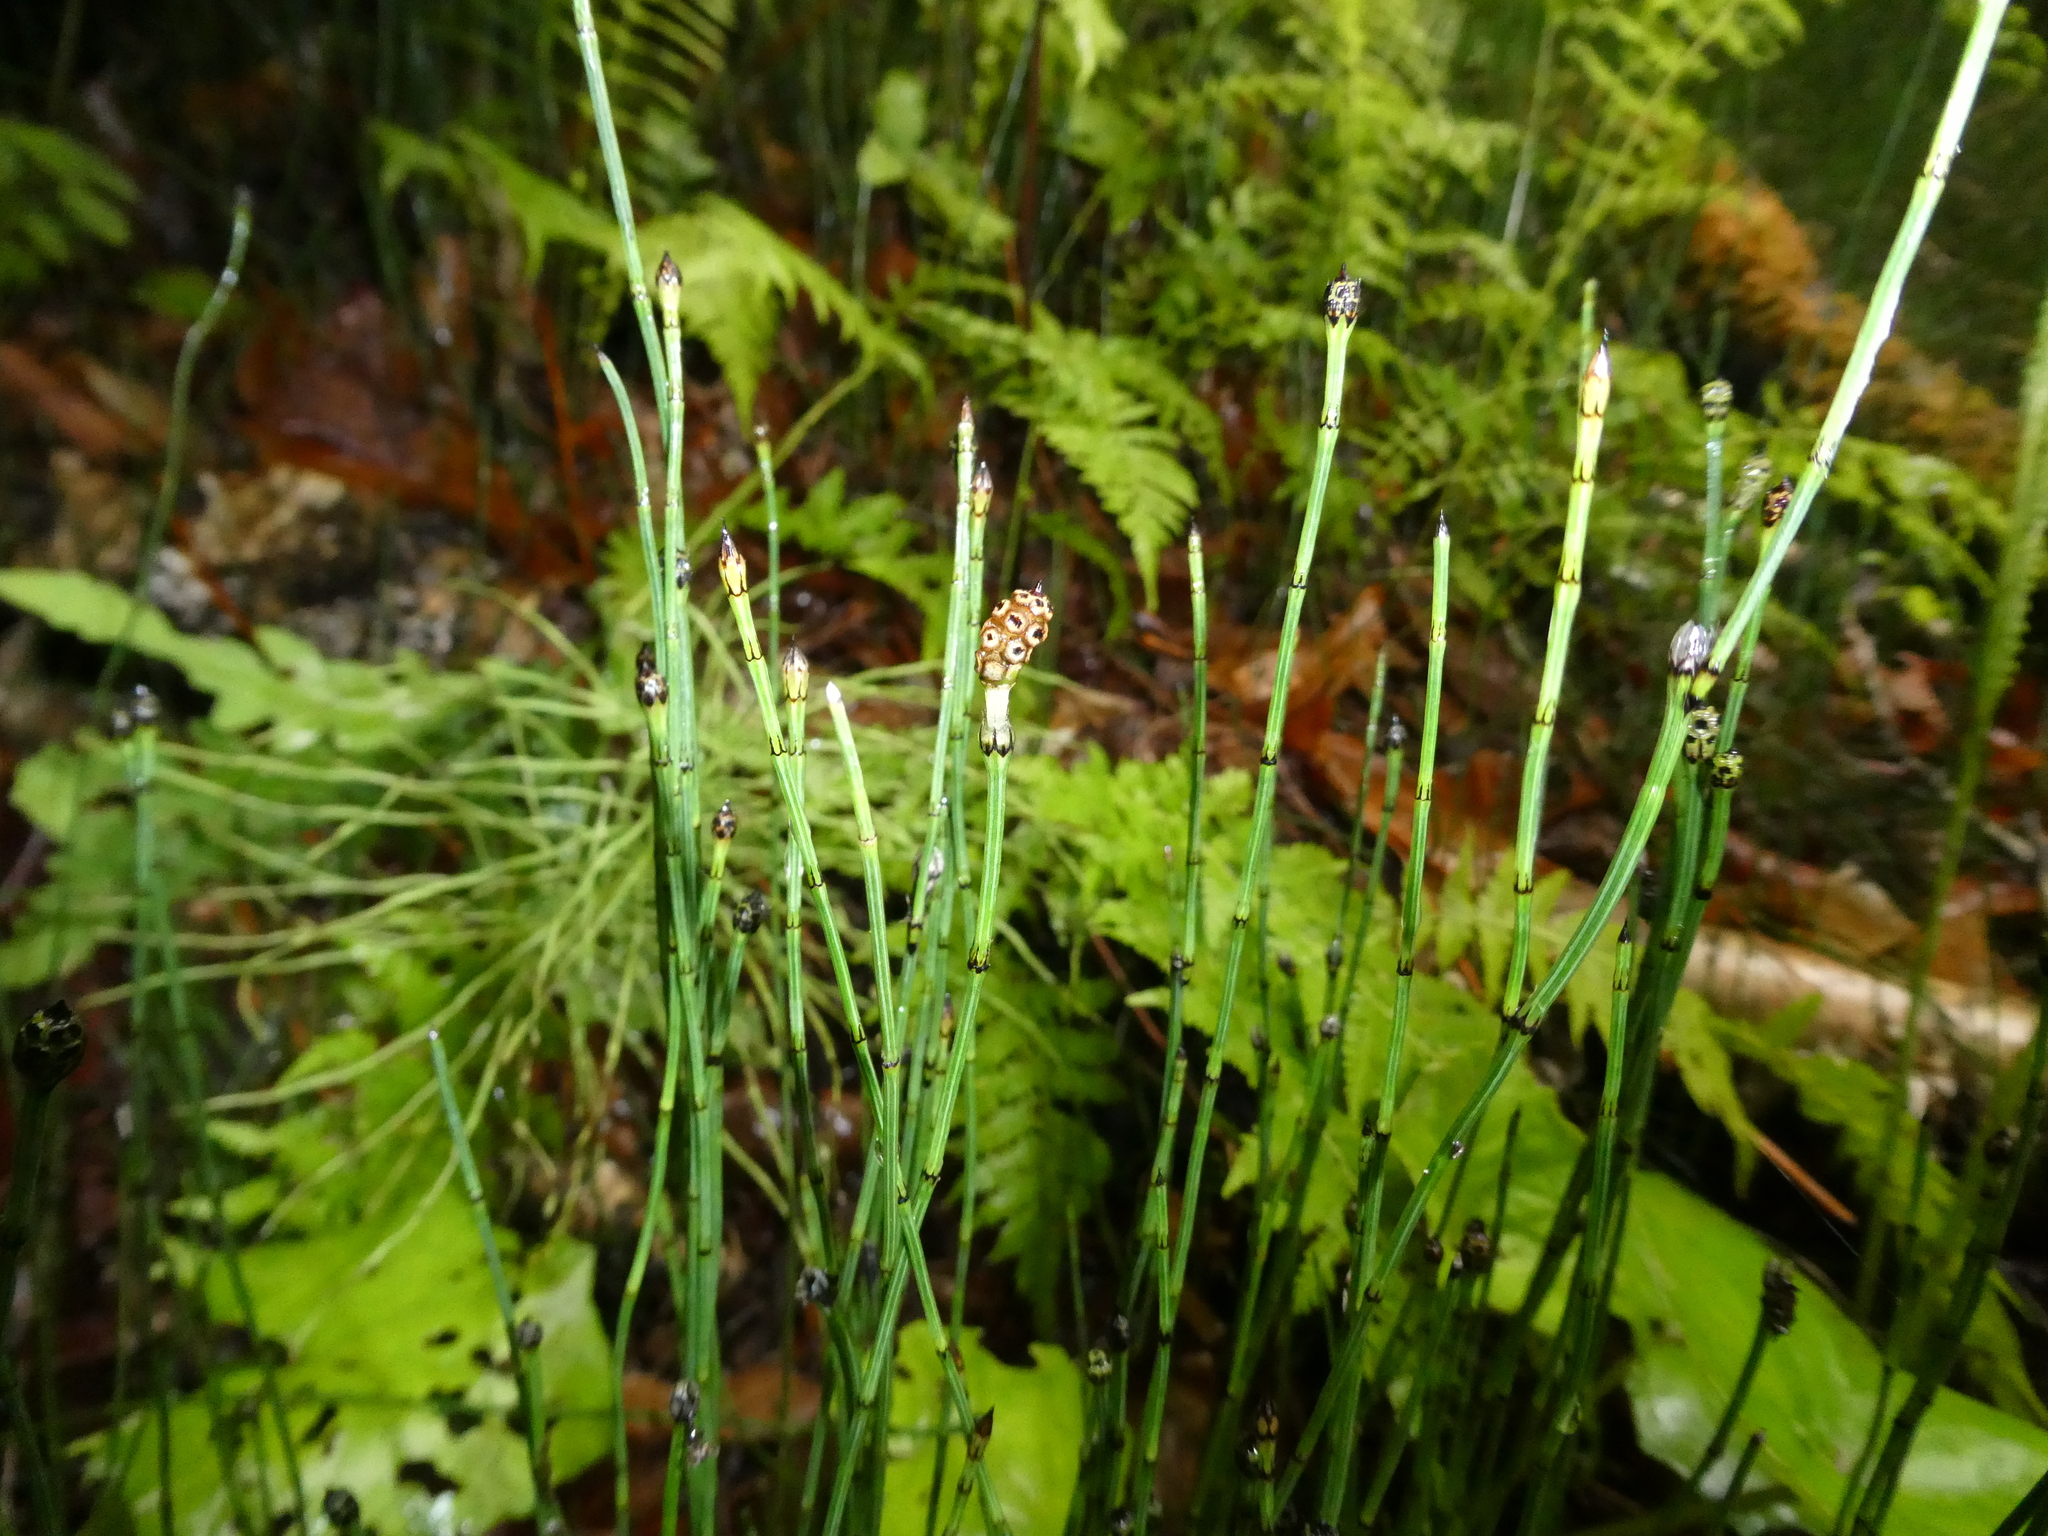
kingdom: Plantae
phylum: Tracheophyta
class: Polypodiopsida
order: Equisetales
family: Equisetaceae
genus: Equisetum
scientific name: Equisetum variegatum
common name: Variegated horsetail
